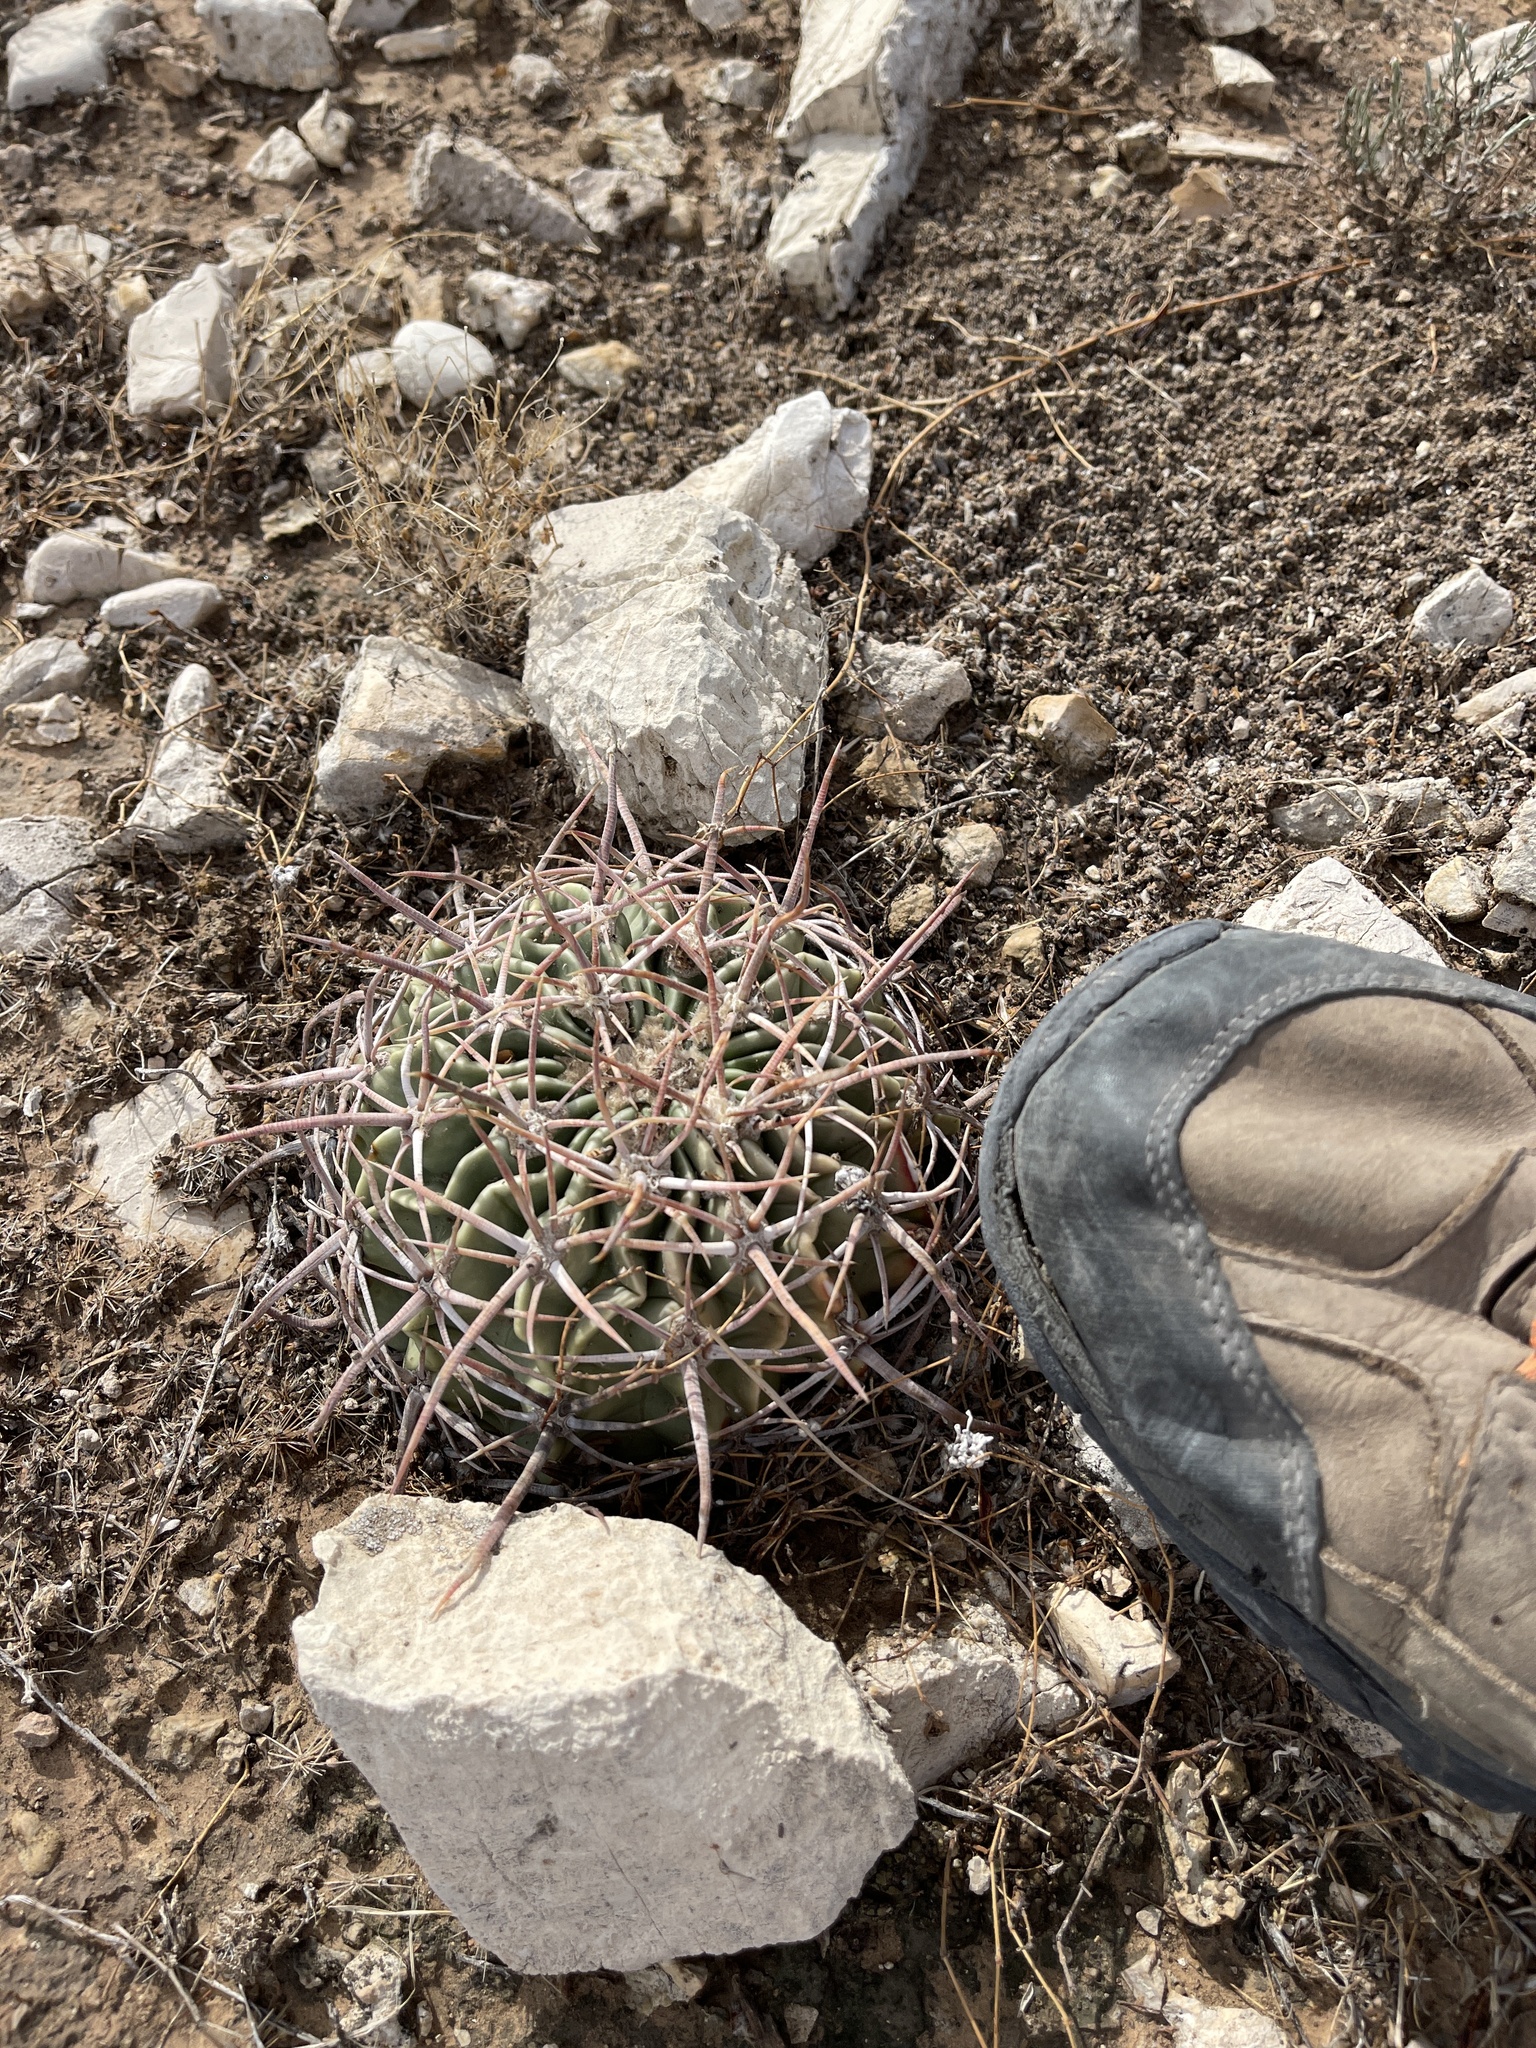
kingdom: Plantae
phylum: Tracheophyta
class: Magnoliopsida
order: Caryophyllales
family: Cactaceae
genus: Echinocactus
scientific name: Echinocactus texensis
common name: Devil's pincushion
